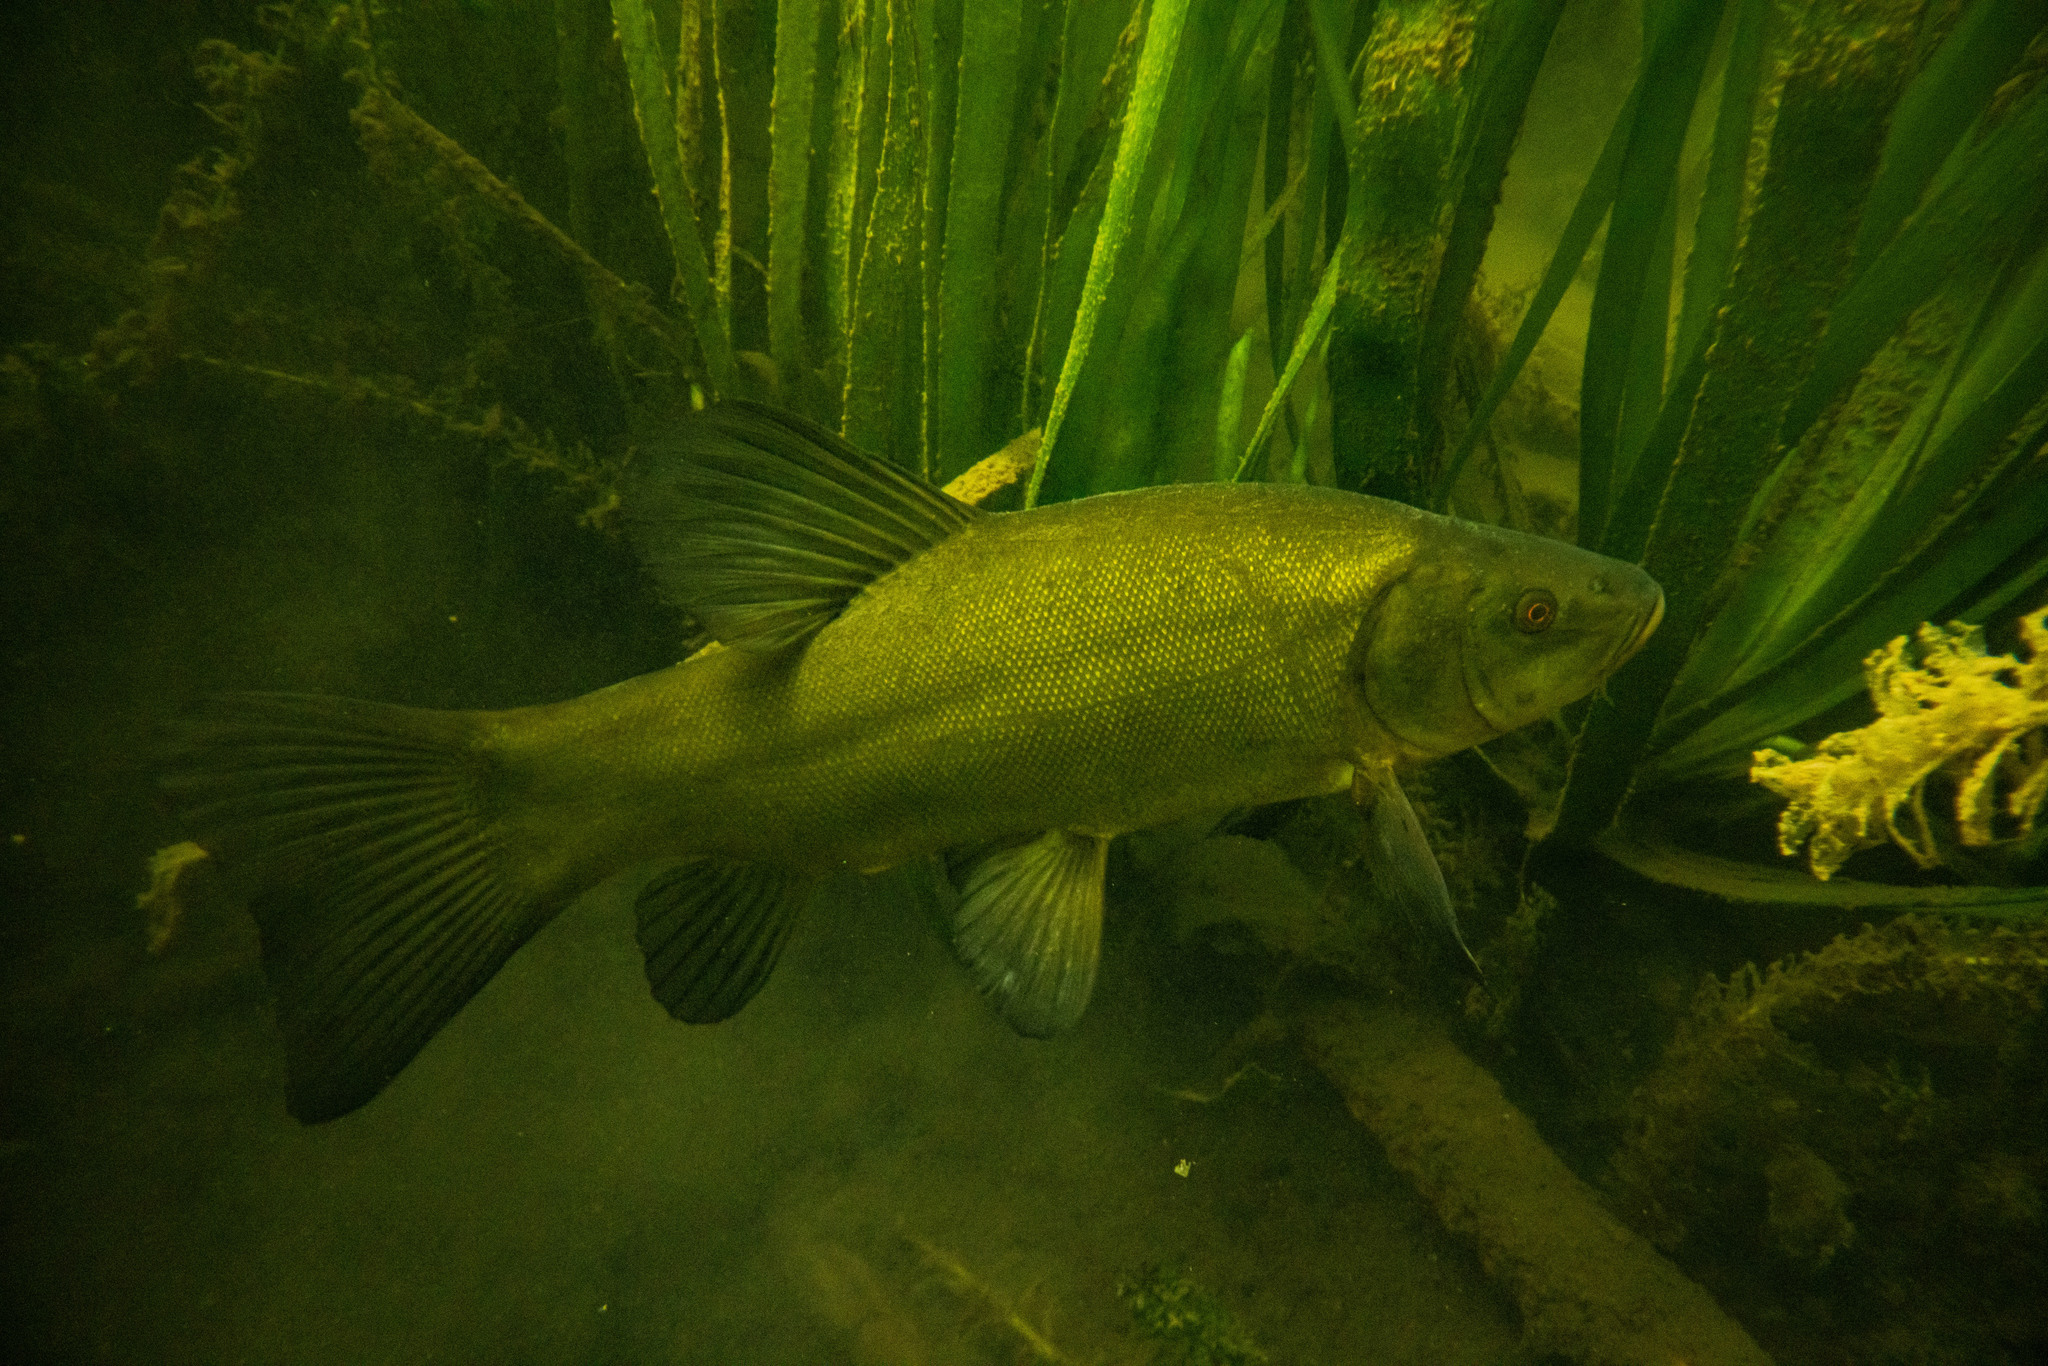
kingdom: Animalia
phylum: Chordata
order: Cypriniformes
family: Cyprinidae
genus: Tinca
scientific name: Tinca tinca
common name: Tench
